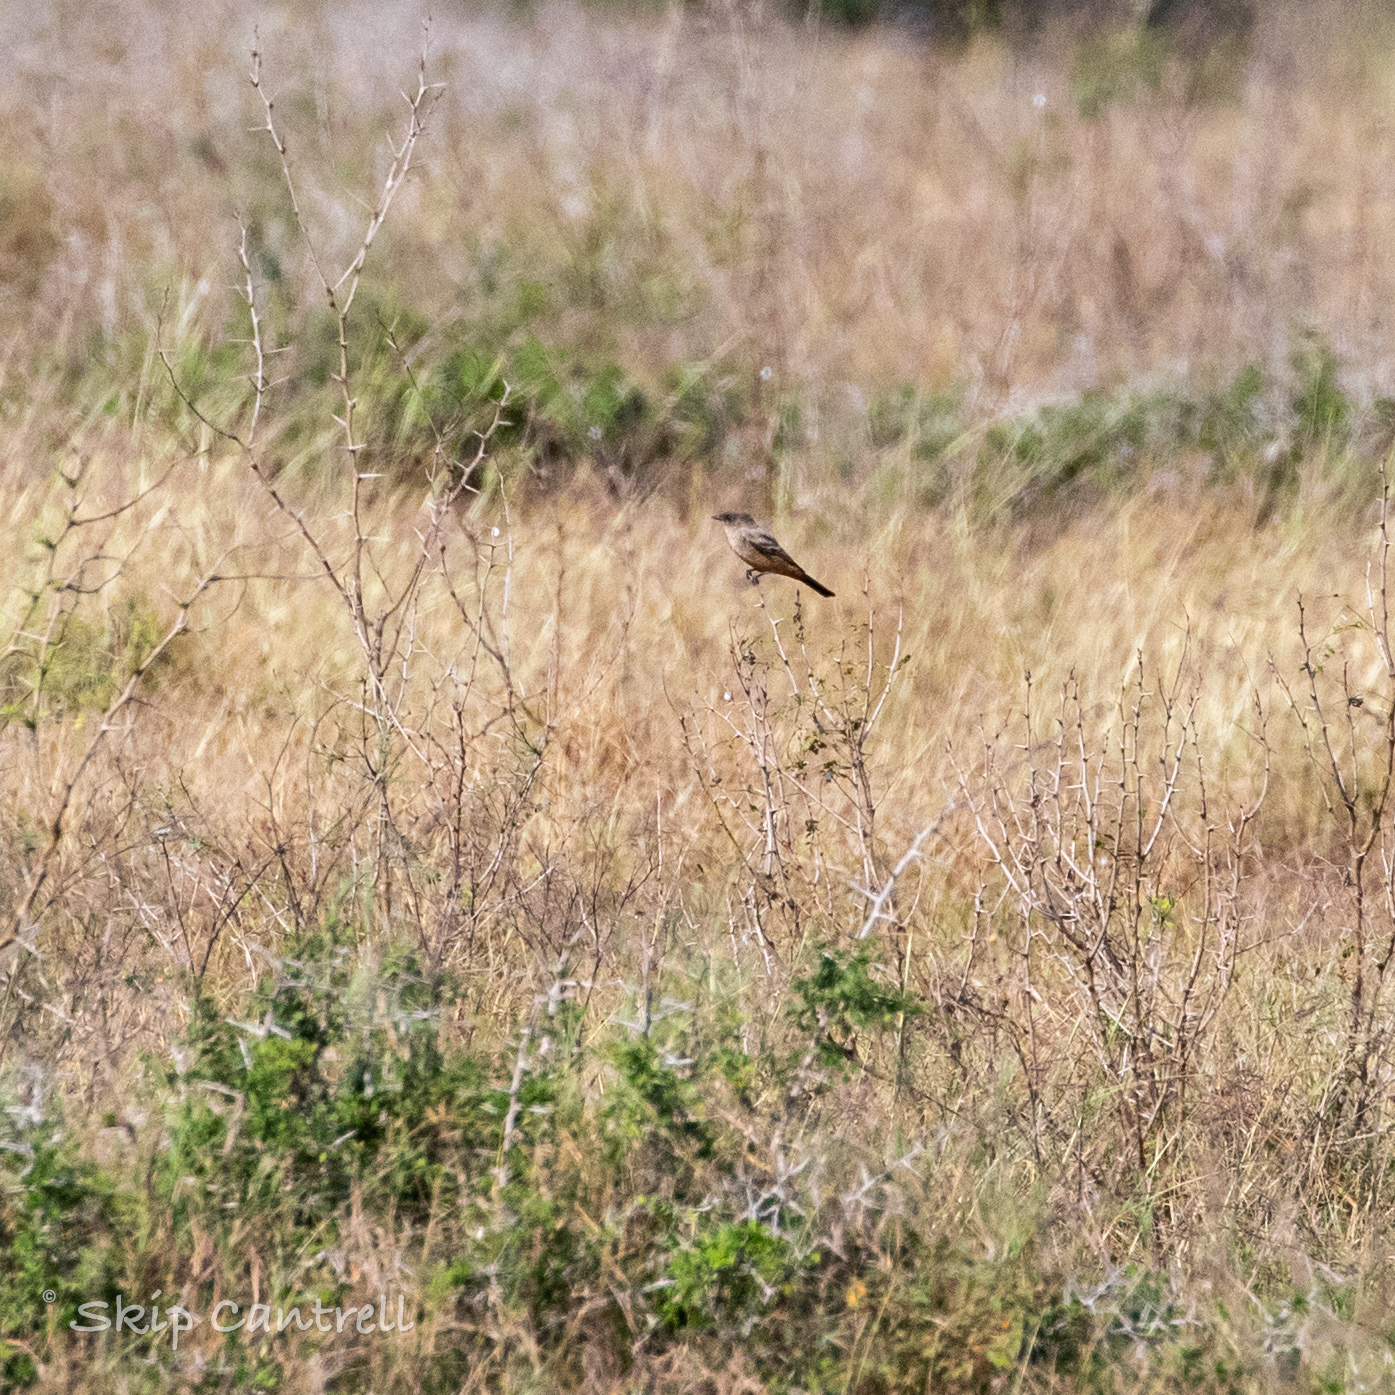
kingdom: Animalia
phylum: Chordata
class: Aves
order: Passeriformes
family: Tyrannidae
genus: Sayornis
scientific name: Sayornis saya
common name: Say's phoebe
